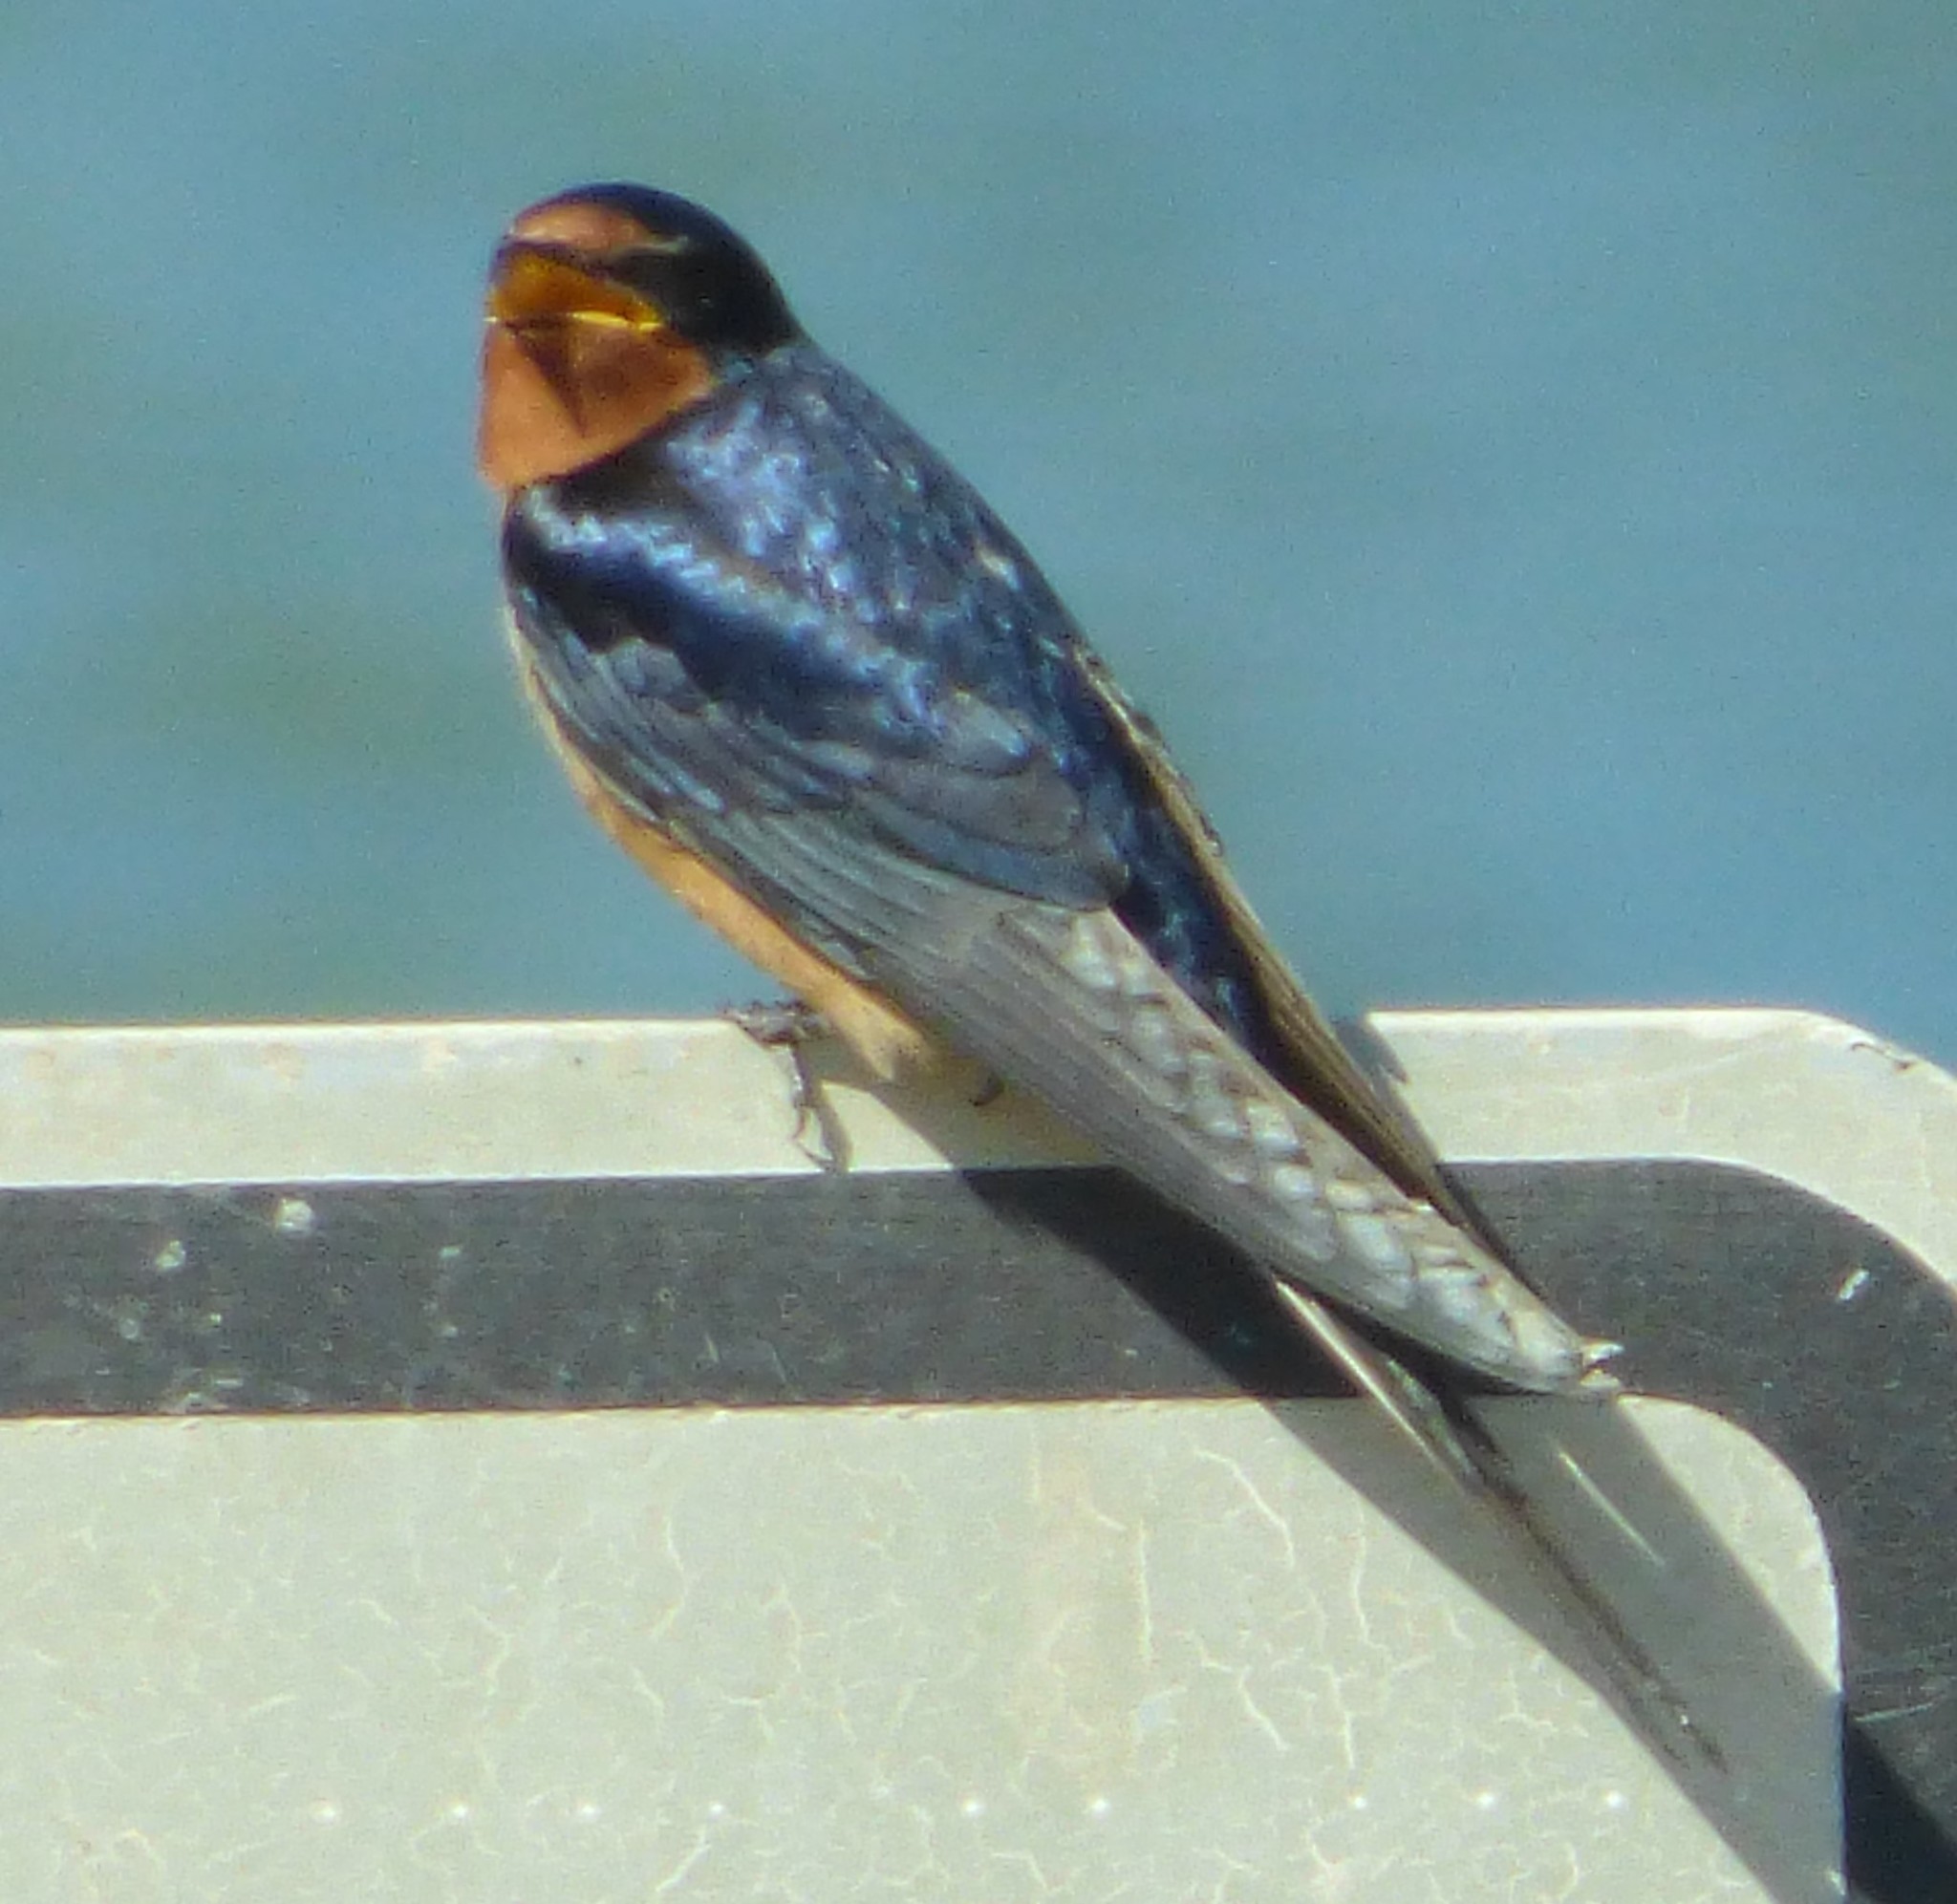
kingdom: Animalia
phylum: Chordata
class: Aves
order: Passeriformes
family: Hirundinidae
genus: Hirundo
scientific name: Hirundo rustica
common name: Barn swallow
